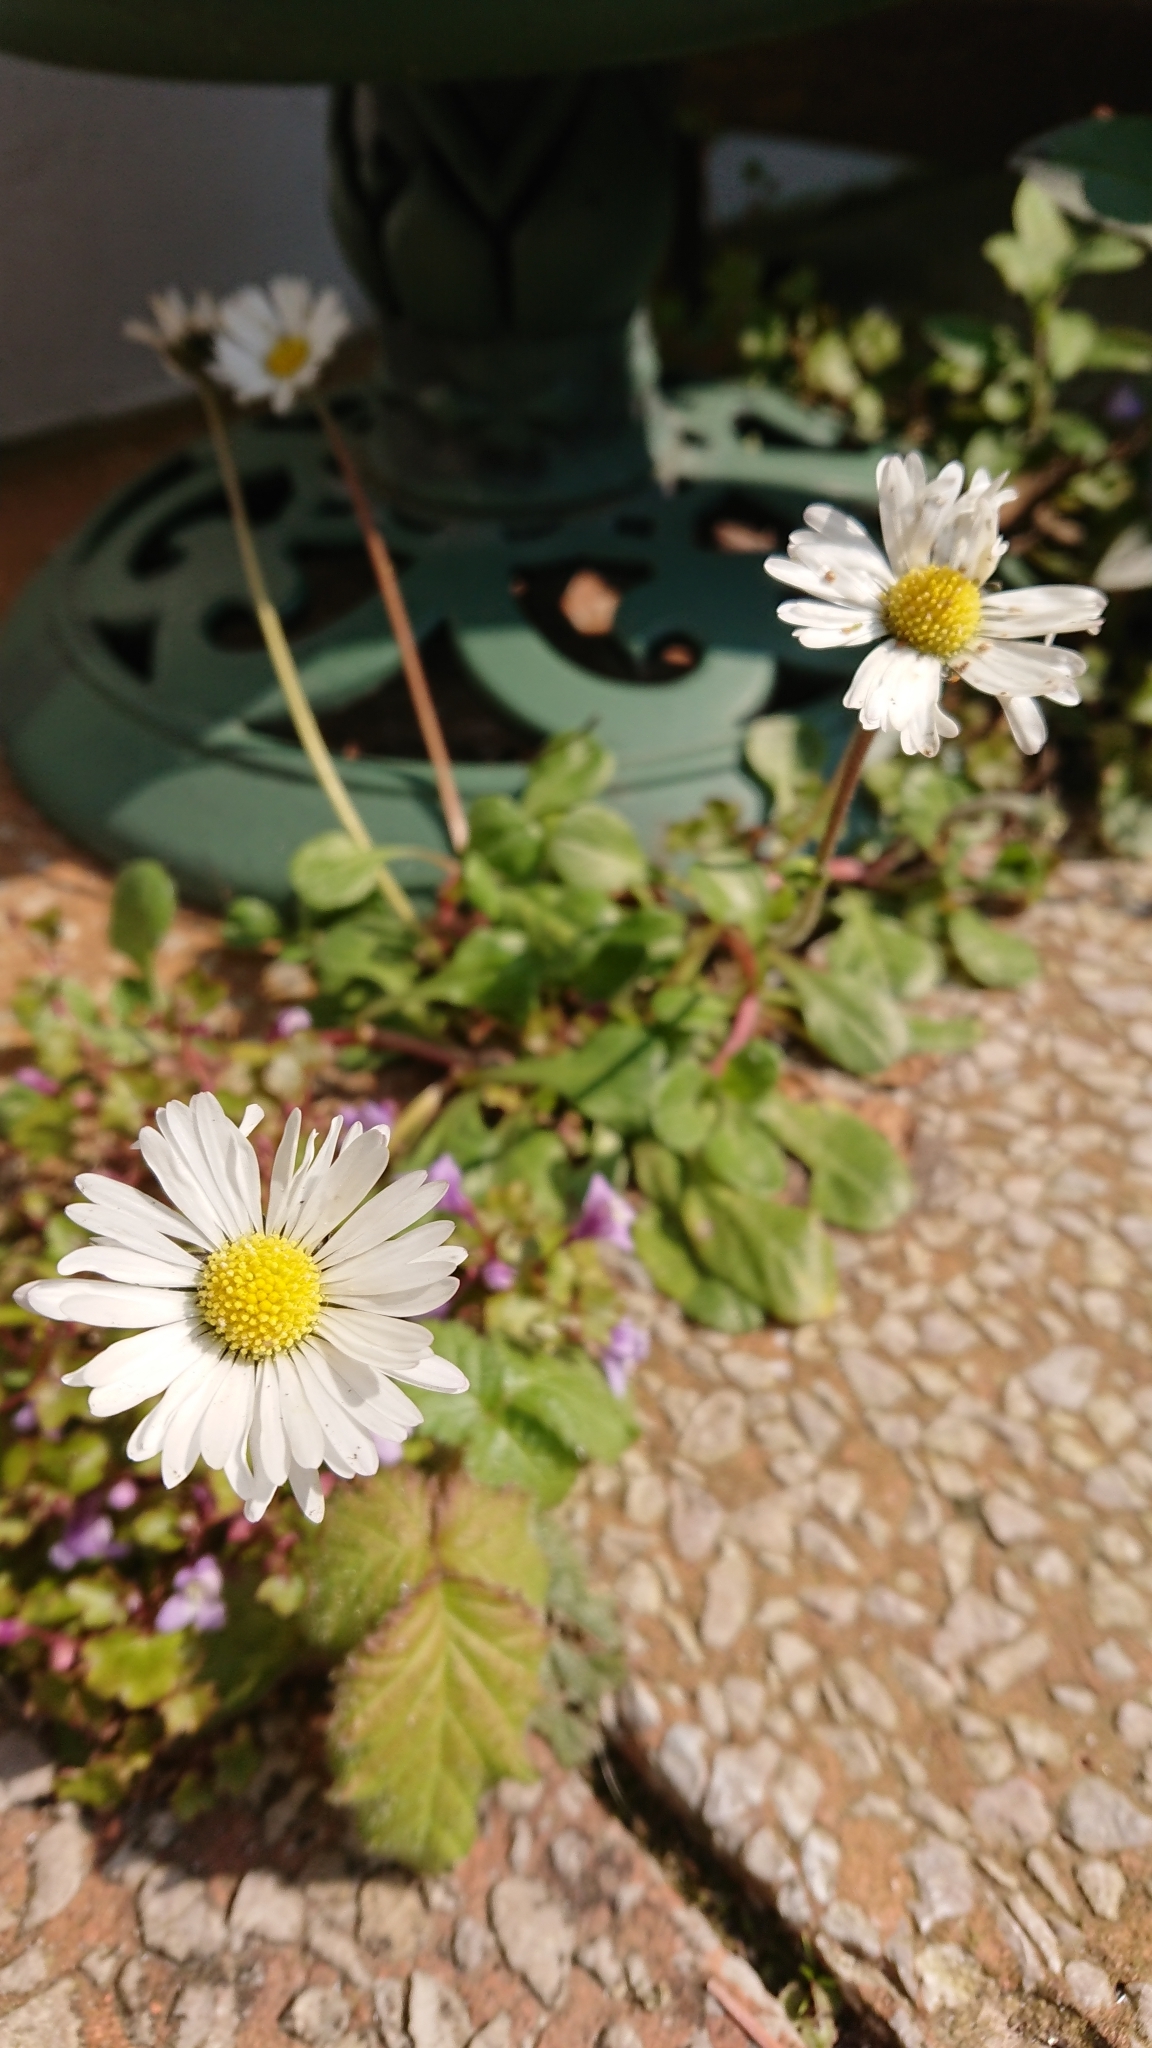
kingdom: Plantae
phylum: Tracheophyta
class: Magnoliopsida
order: Asterales
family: Asteraceae
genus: Bellis
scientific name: Bellis perennis
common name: Lawndaisy
